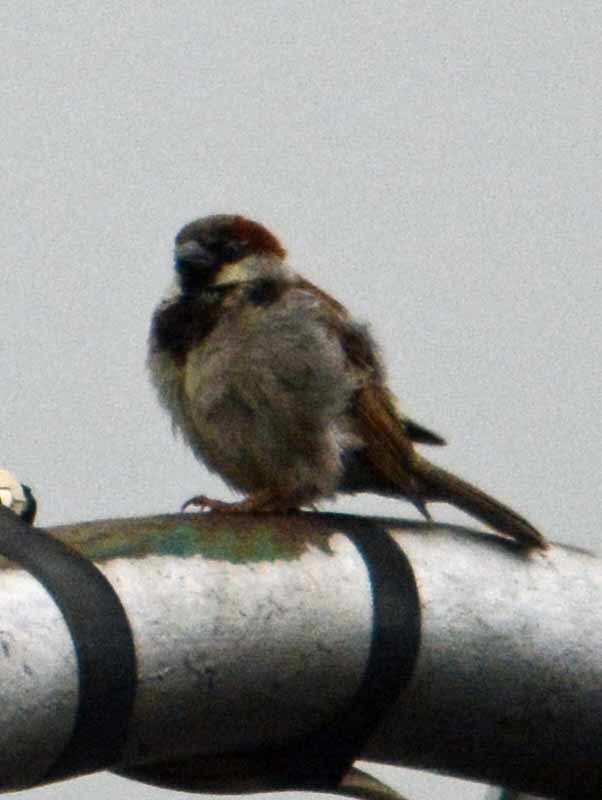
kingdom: Animalia
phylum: Chordata
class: Aves
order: Passeriformes
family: Passeridae
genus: Passer
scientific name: Passer domesticus
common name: House sparrow
